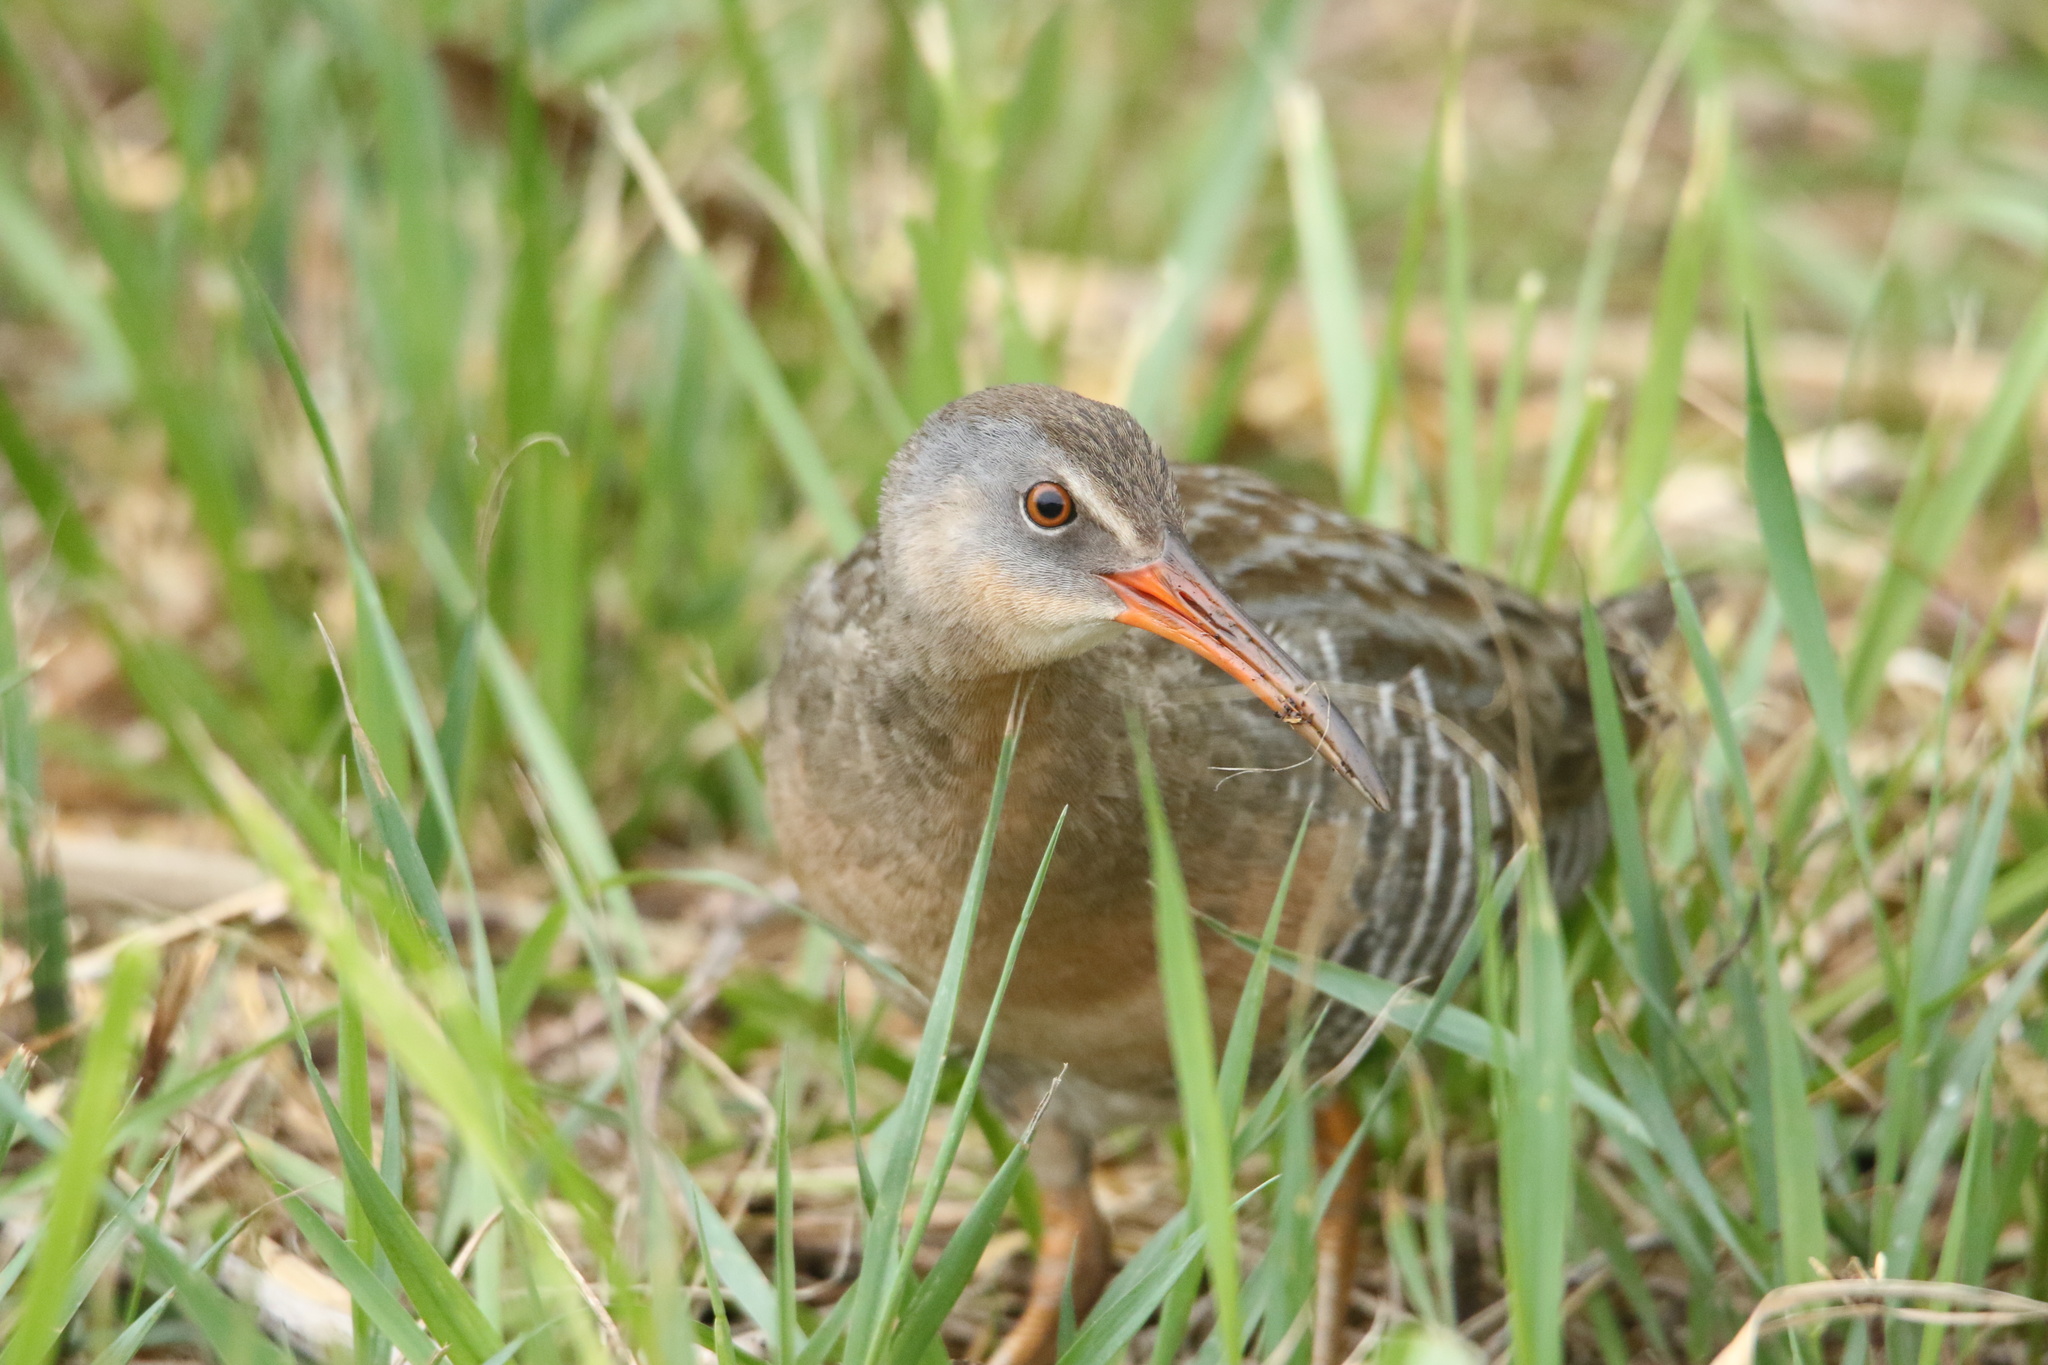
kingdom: Animalia
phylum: Chordata
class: Aves
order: Gruiformes
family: Rallidae
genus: Rallus
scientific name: Rallus crepitans
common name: Clapper rail
